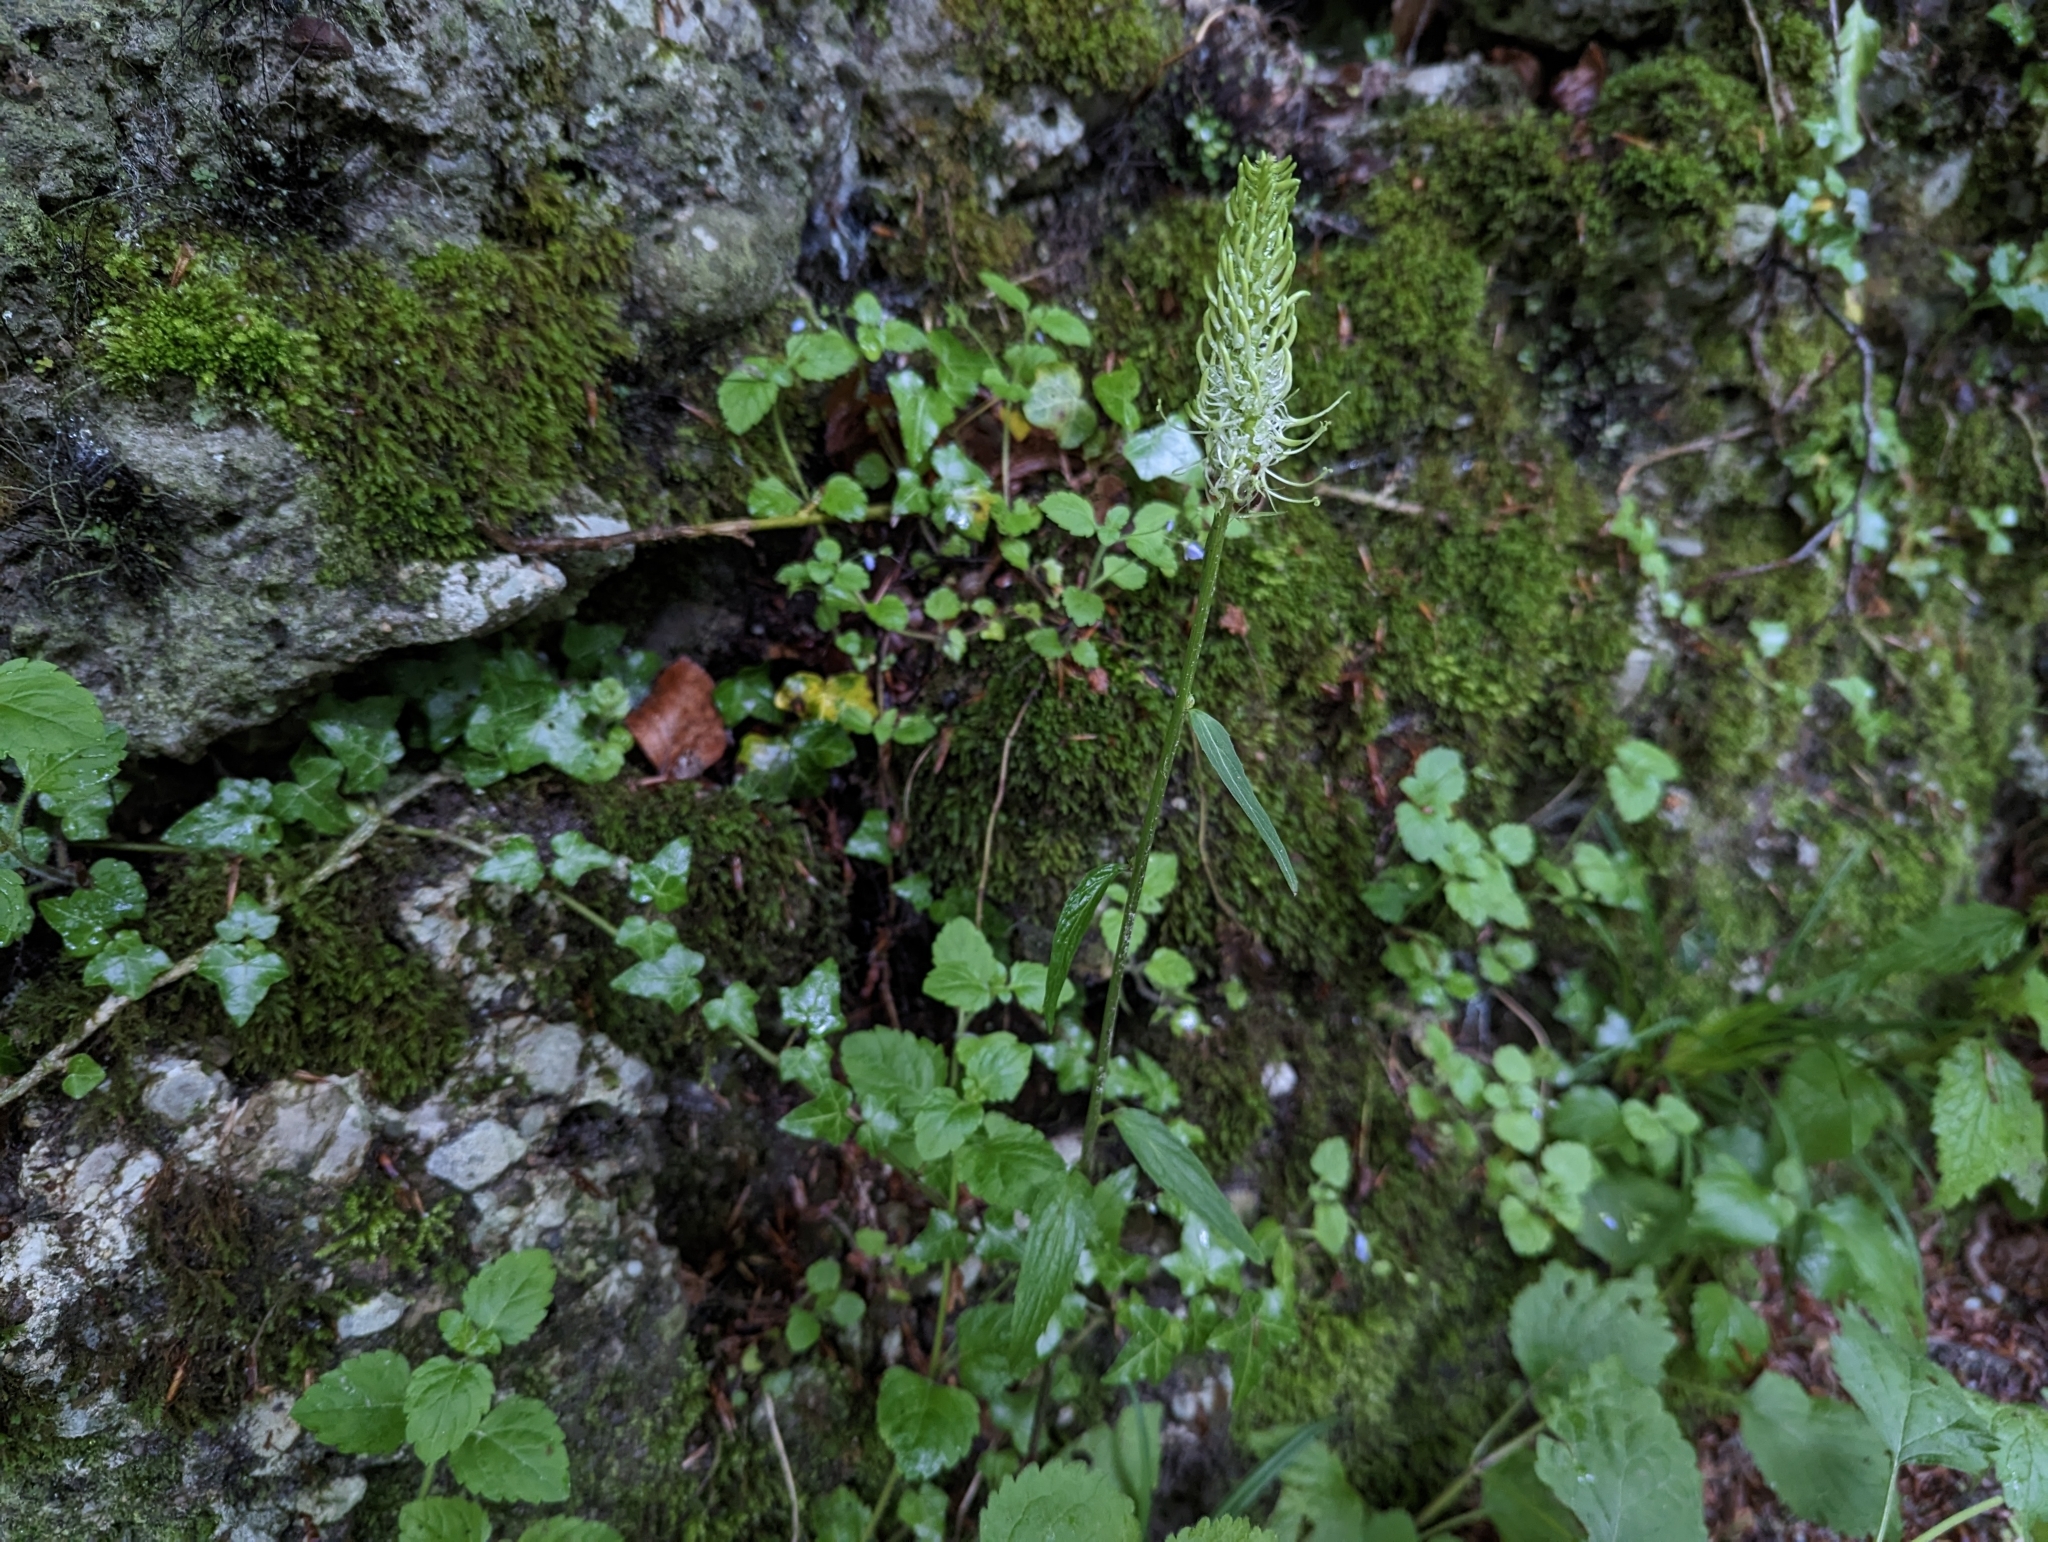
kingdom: Plantae
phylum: Tracheophyta
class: Magnoliopsida
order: Asterales
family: Campanulaceae
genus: Phyteuma
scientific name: Phyteuma spicatum
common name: Spiked rampion
